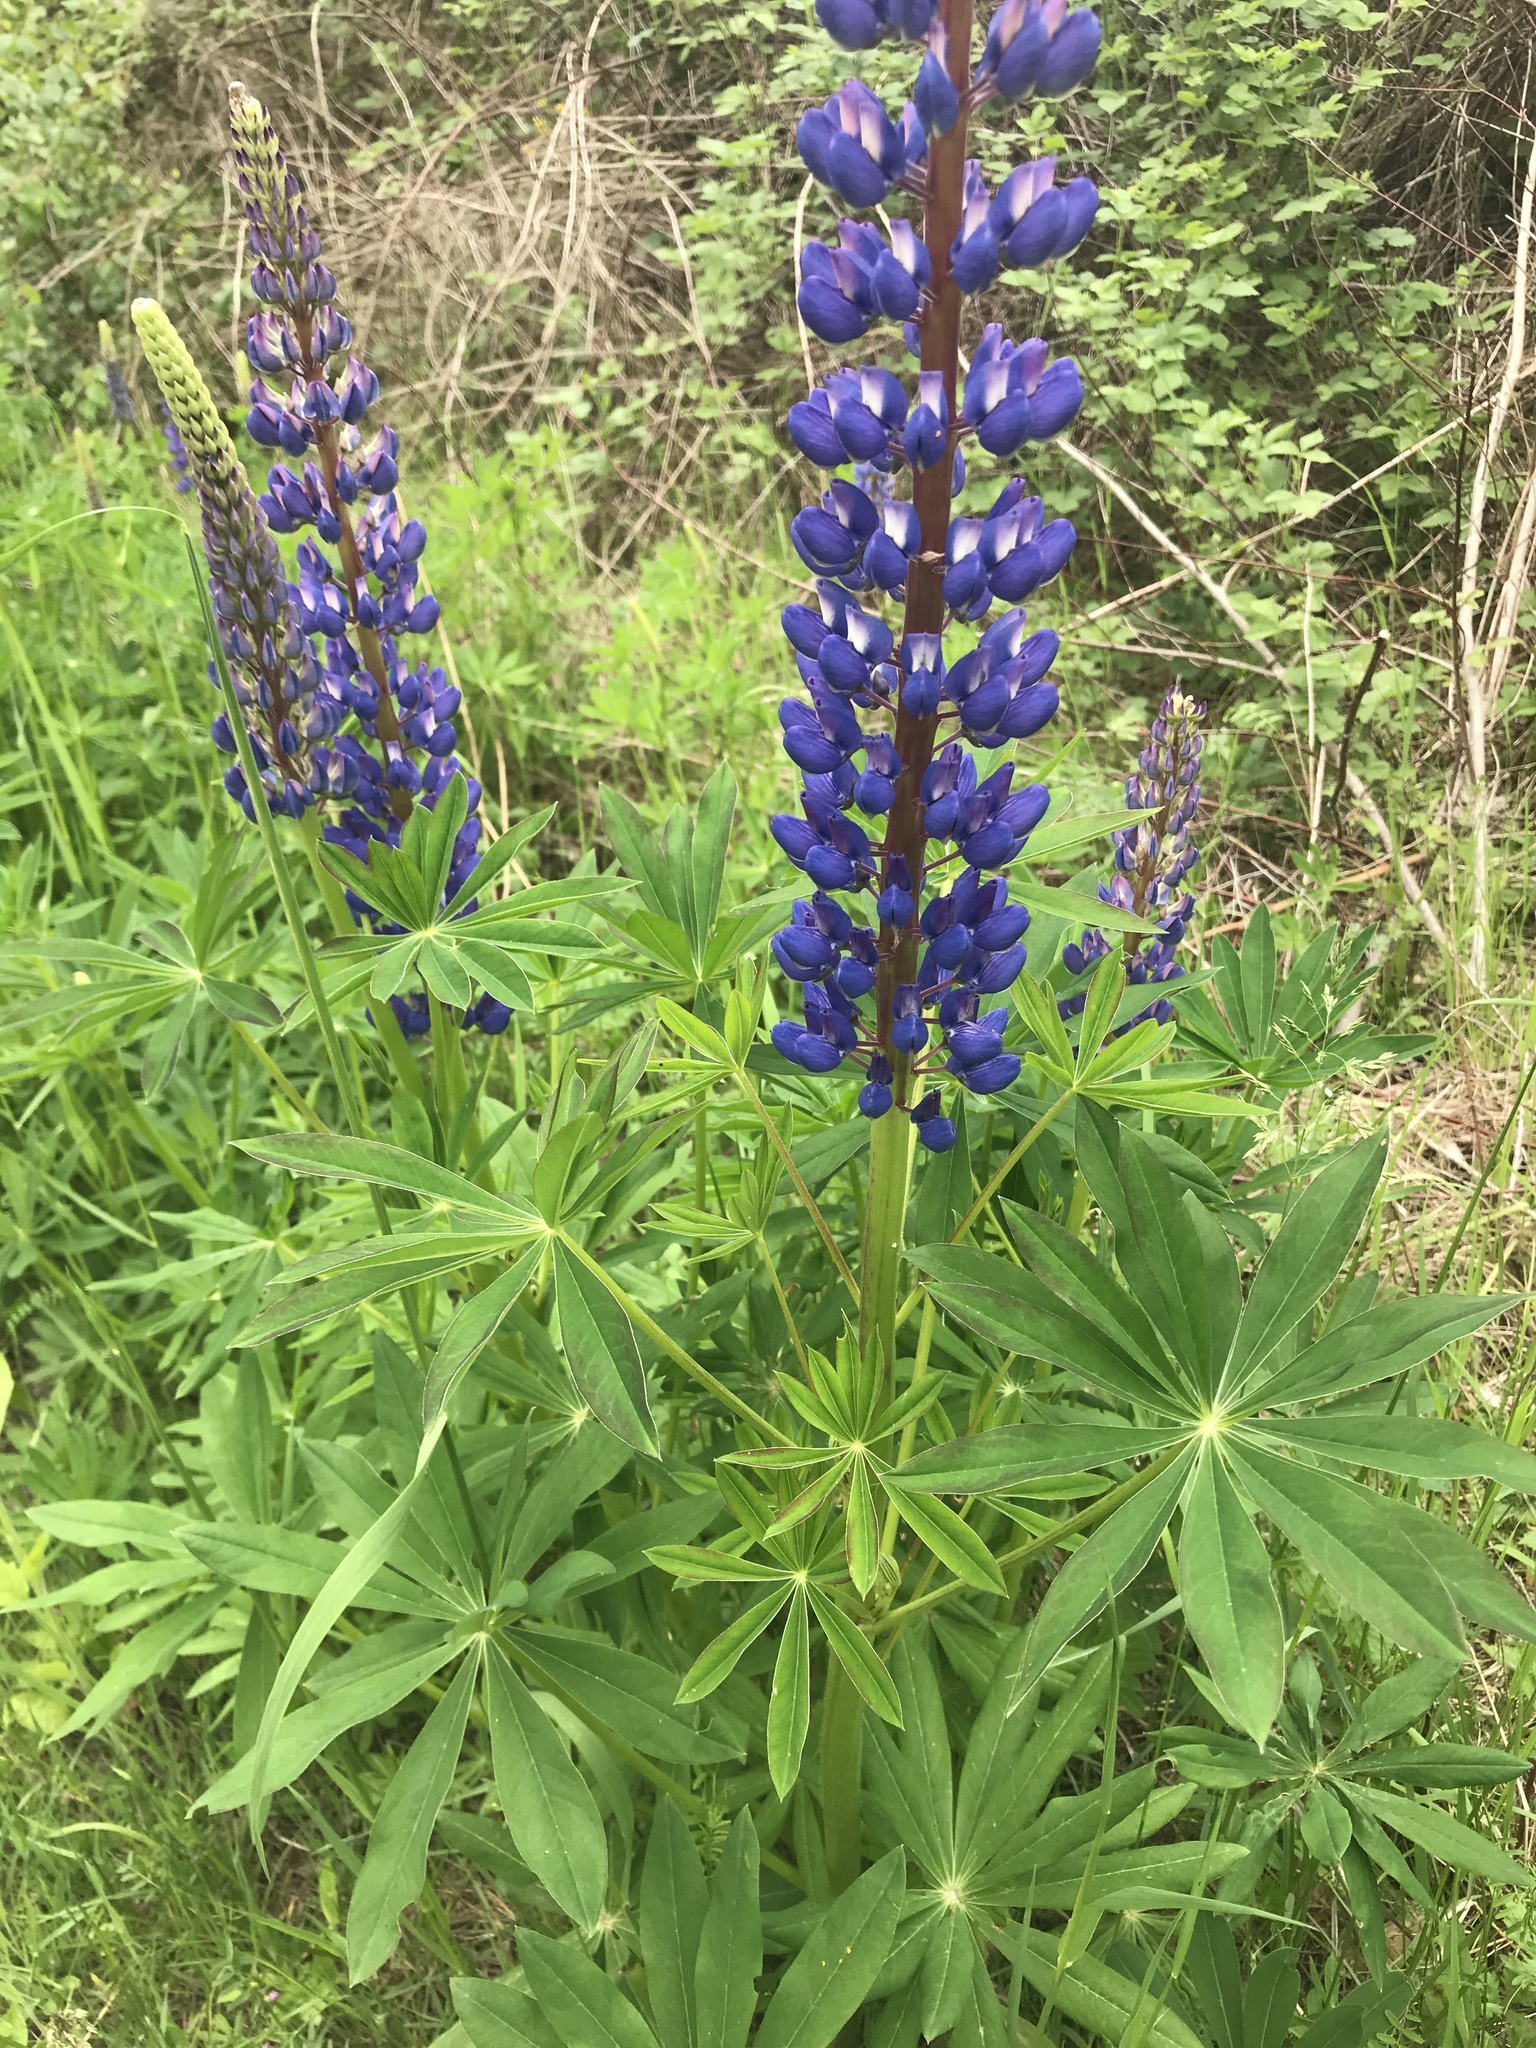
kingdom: Plantae
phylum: Tracheophyta
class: Magnoliopsida
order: Fabales
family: Fabaceae
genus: Lupinus
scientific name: Lupinus polyphyllus
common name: Garden lupin
